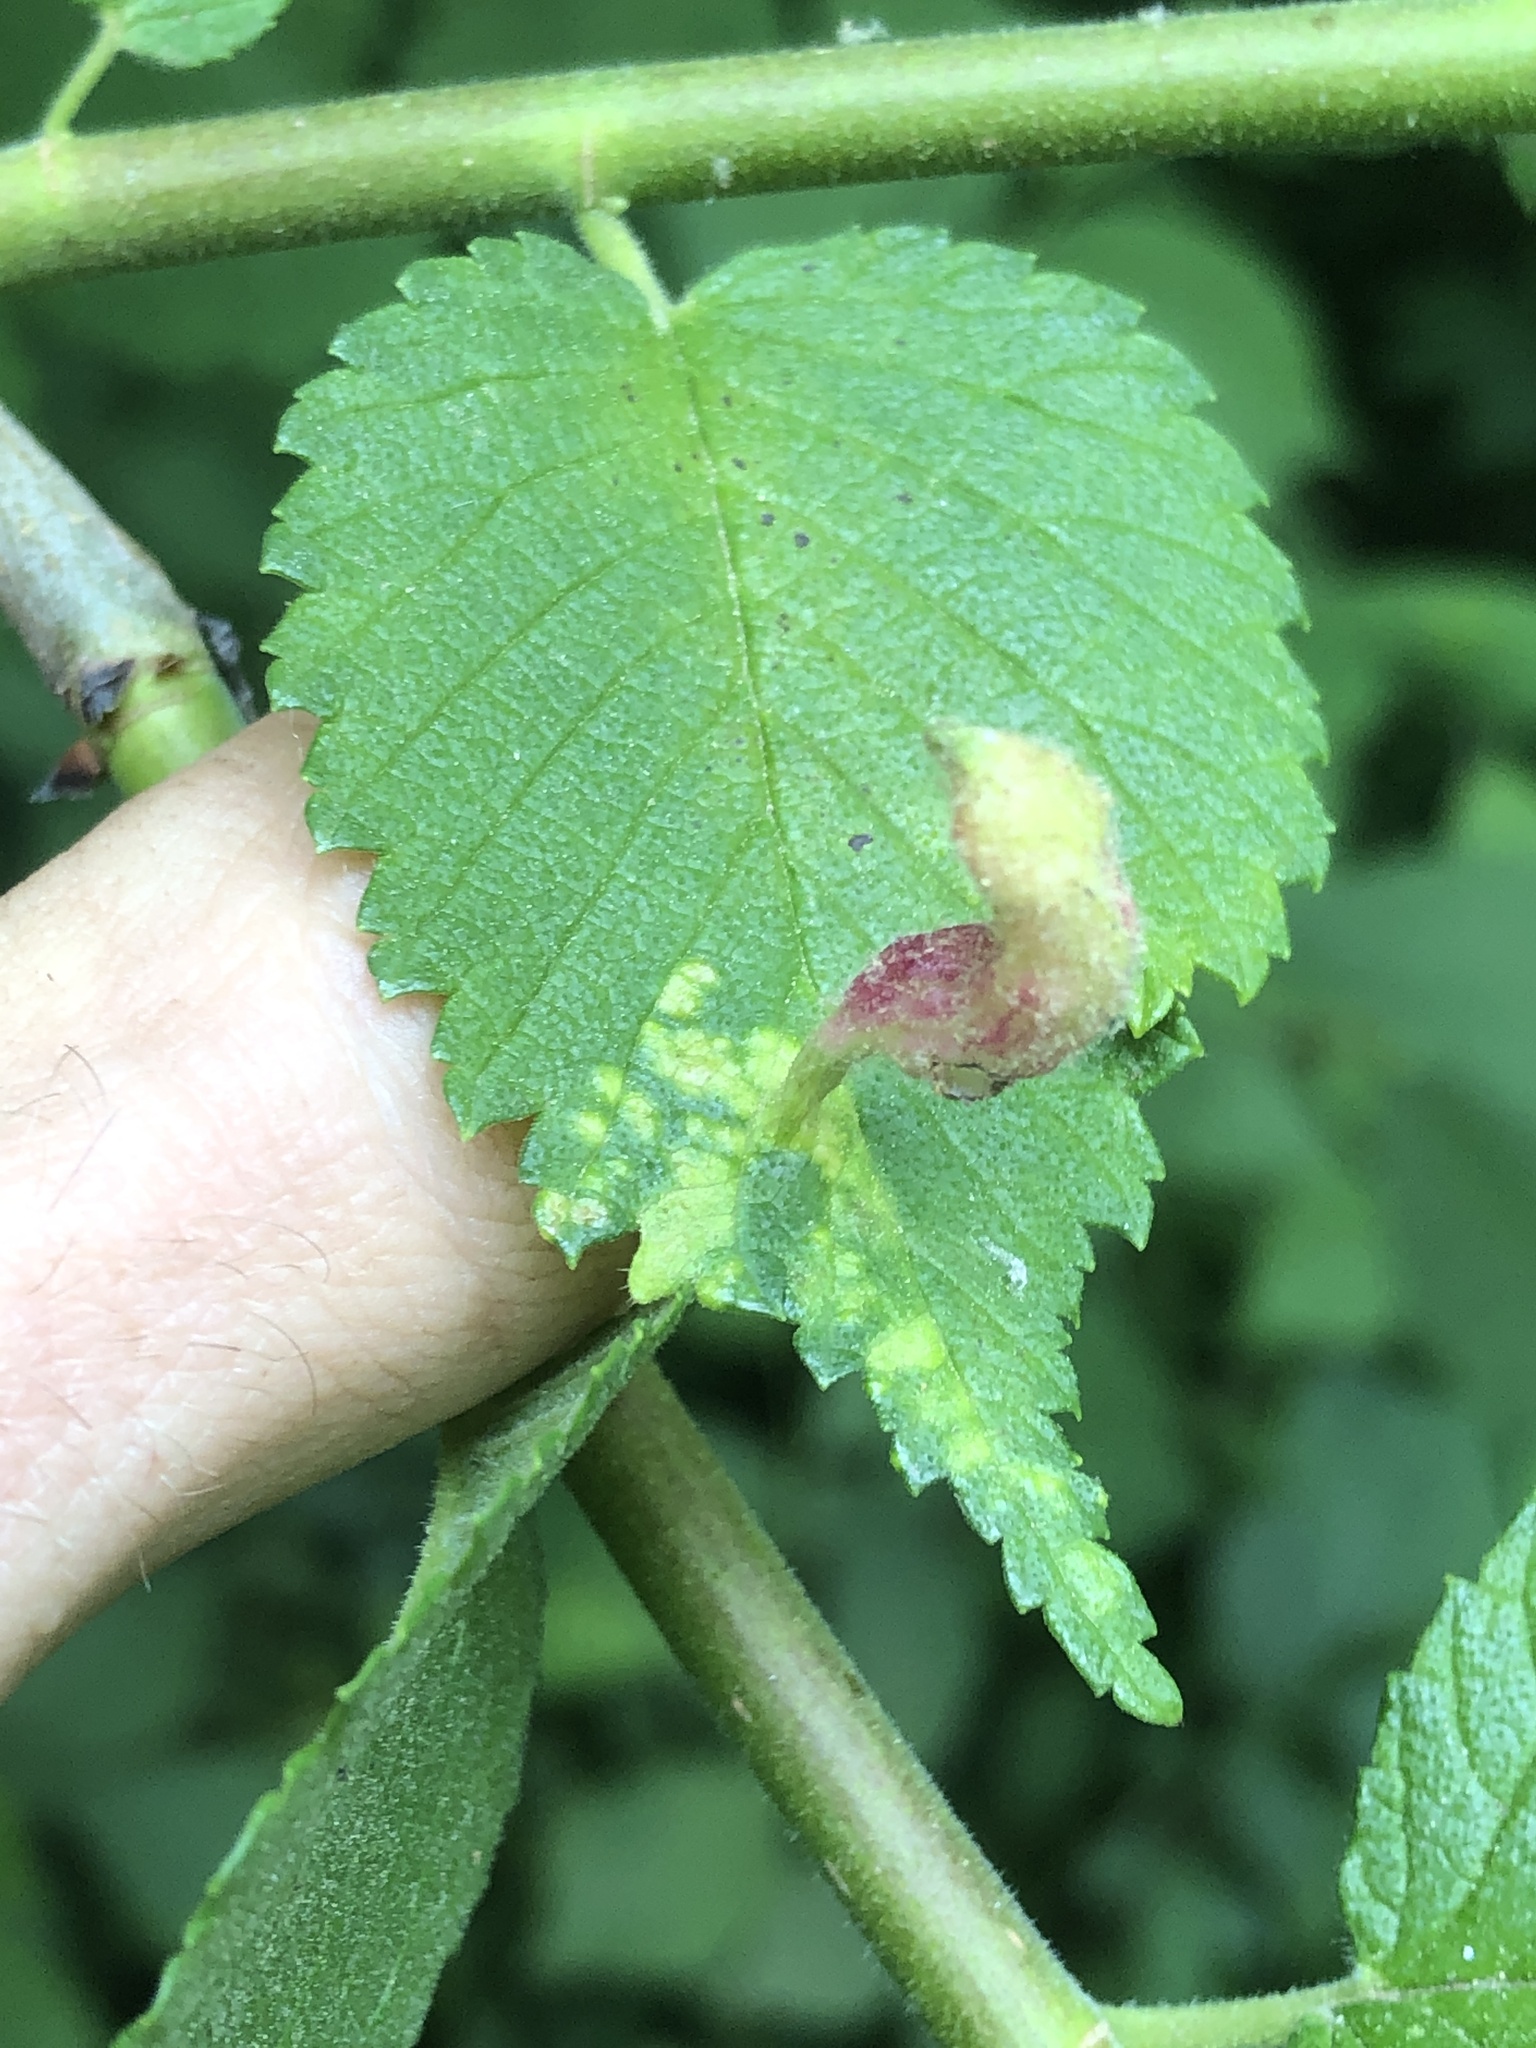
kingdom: Animalia
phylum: Arthropoda
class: Insecta
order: Hemiptera
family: Aphididae
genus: Tetraneura
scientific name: Tetraneura nigriabdominalis
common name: Aphid
